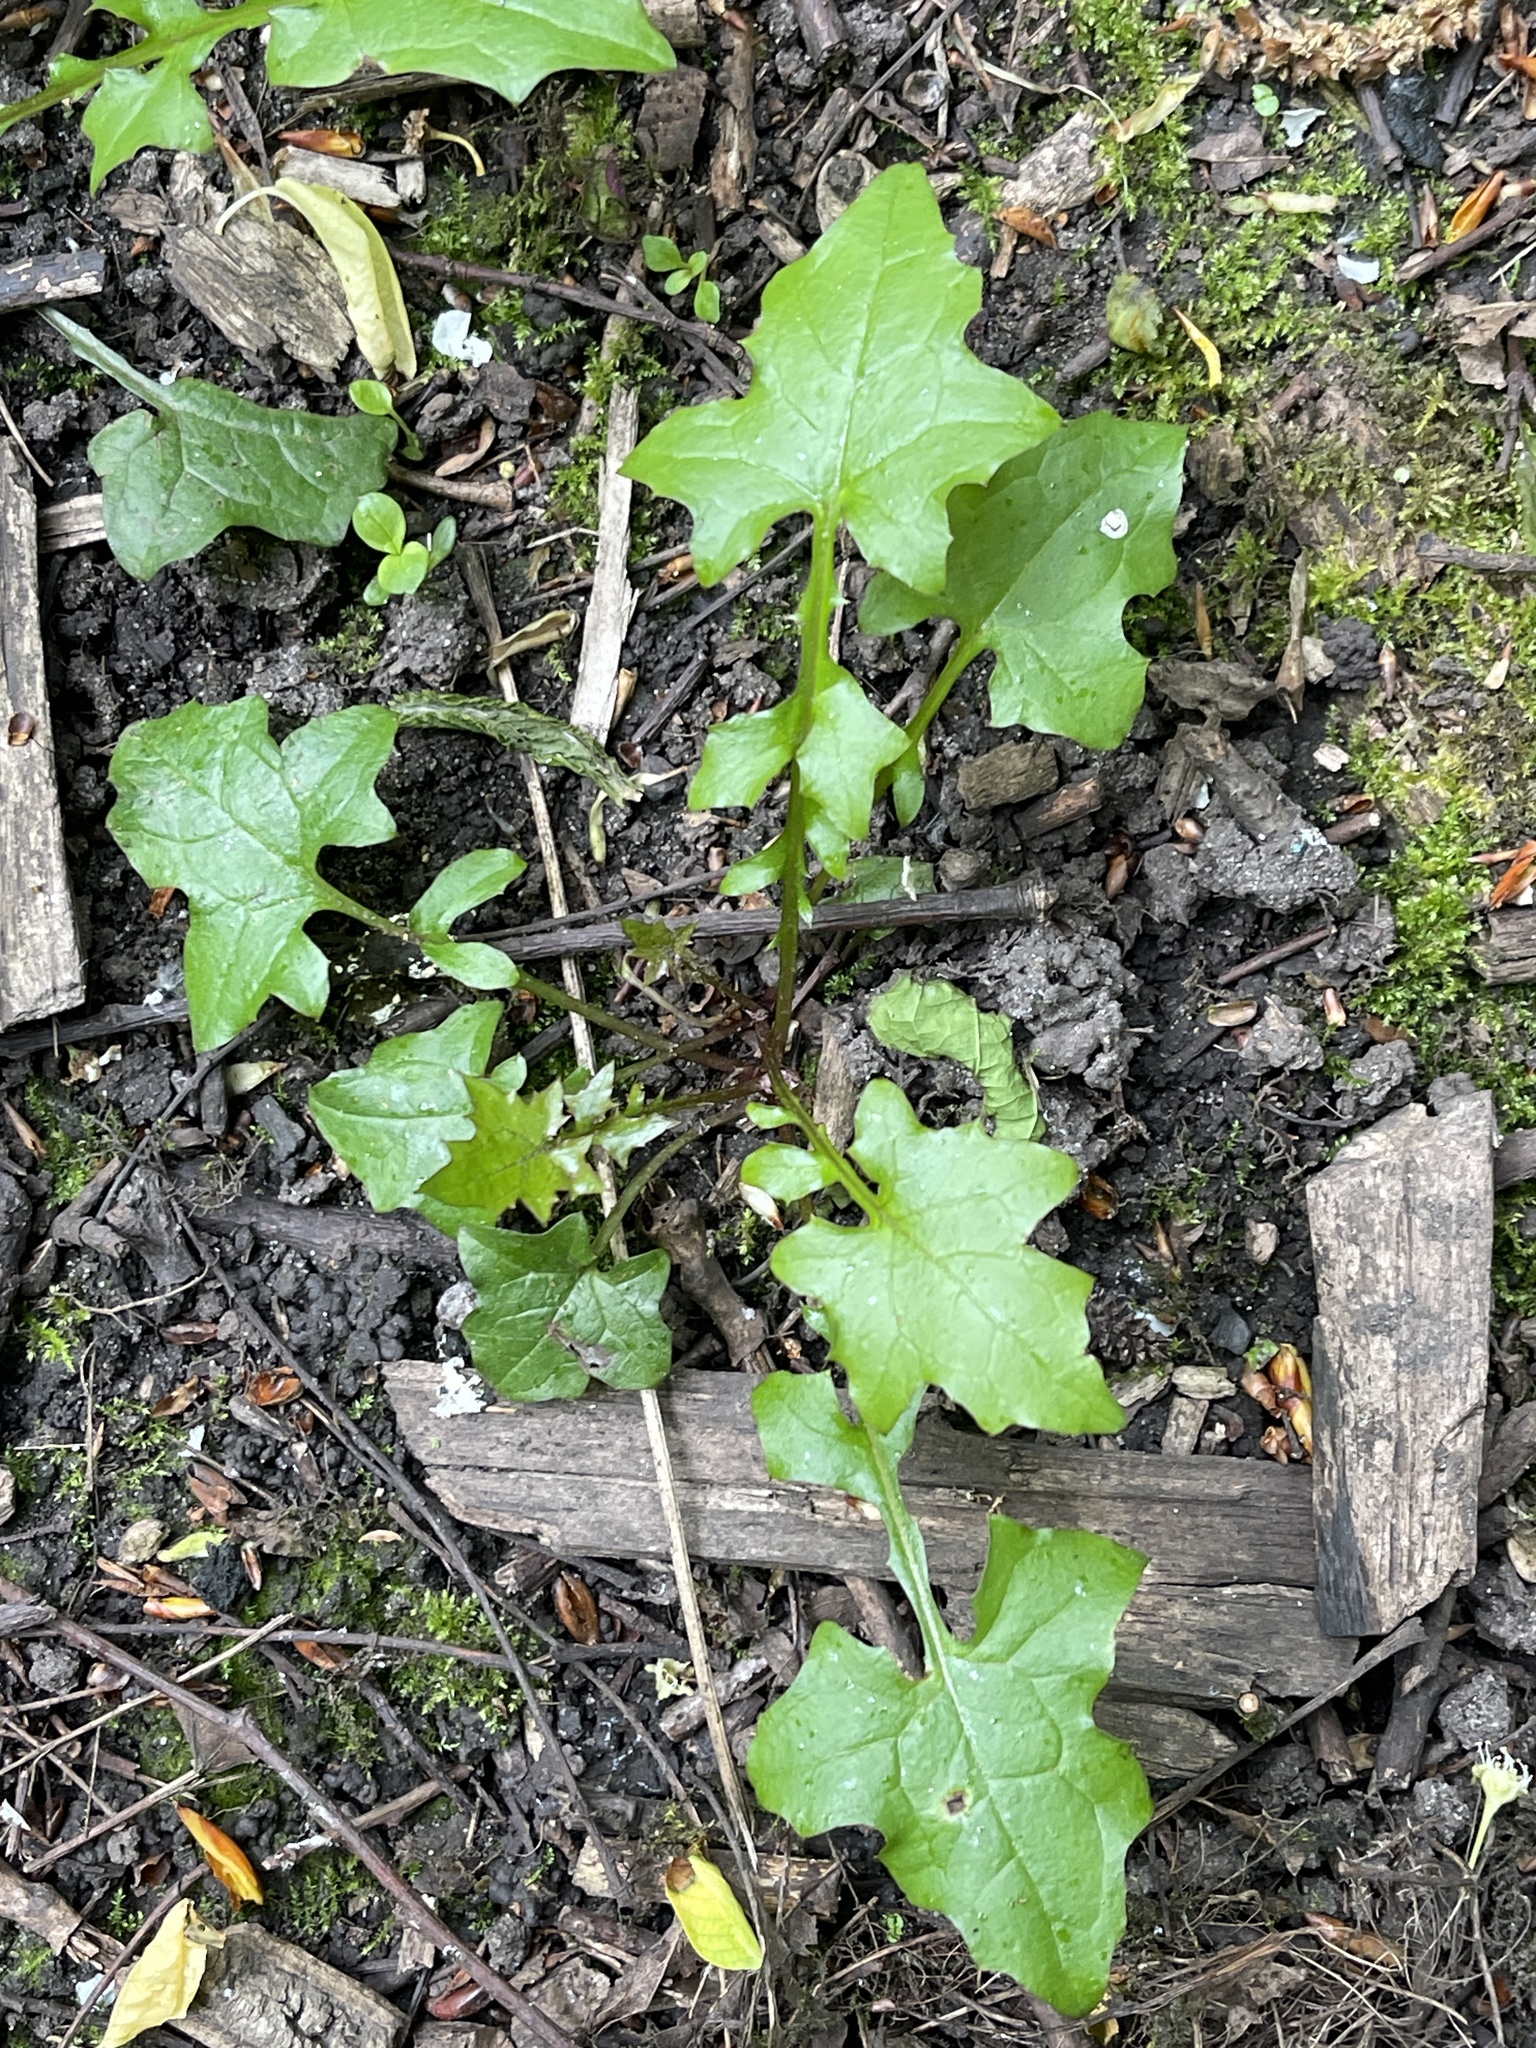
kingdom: Plantae
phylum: Tracheophyta
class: Magnoliopsida
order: Asterales
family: Asteraceae
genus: Mycelis
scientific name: Mycelis muralis
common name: Wall lettuce
